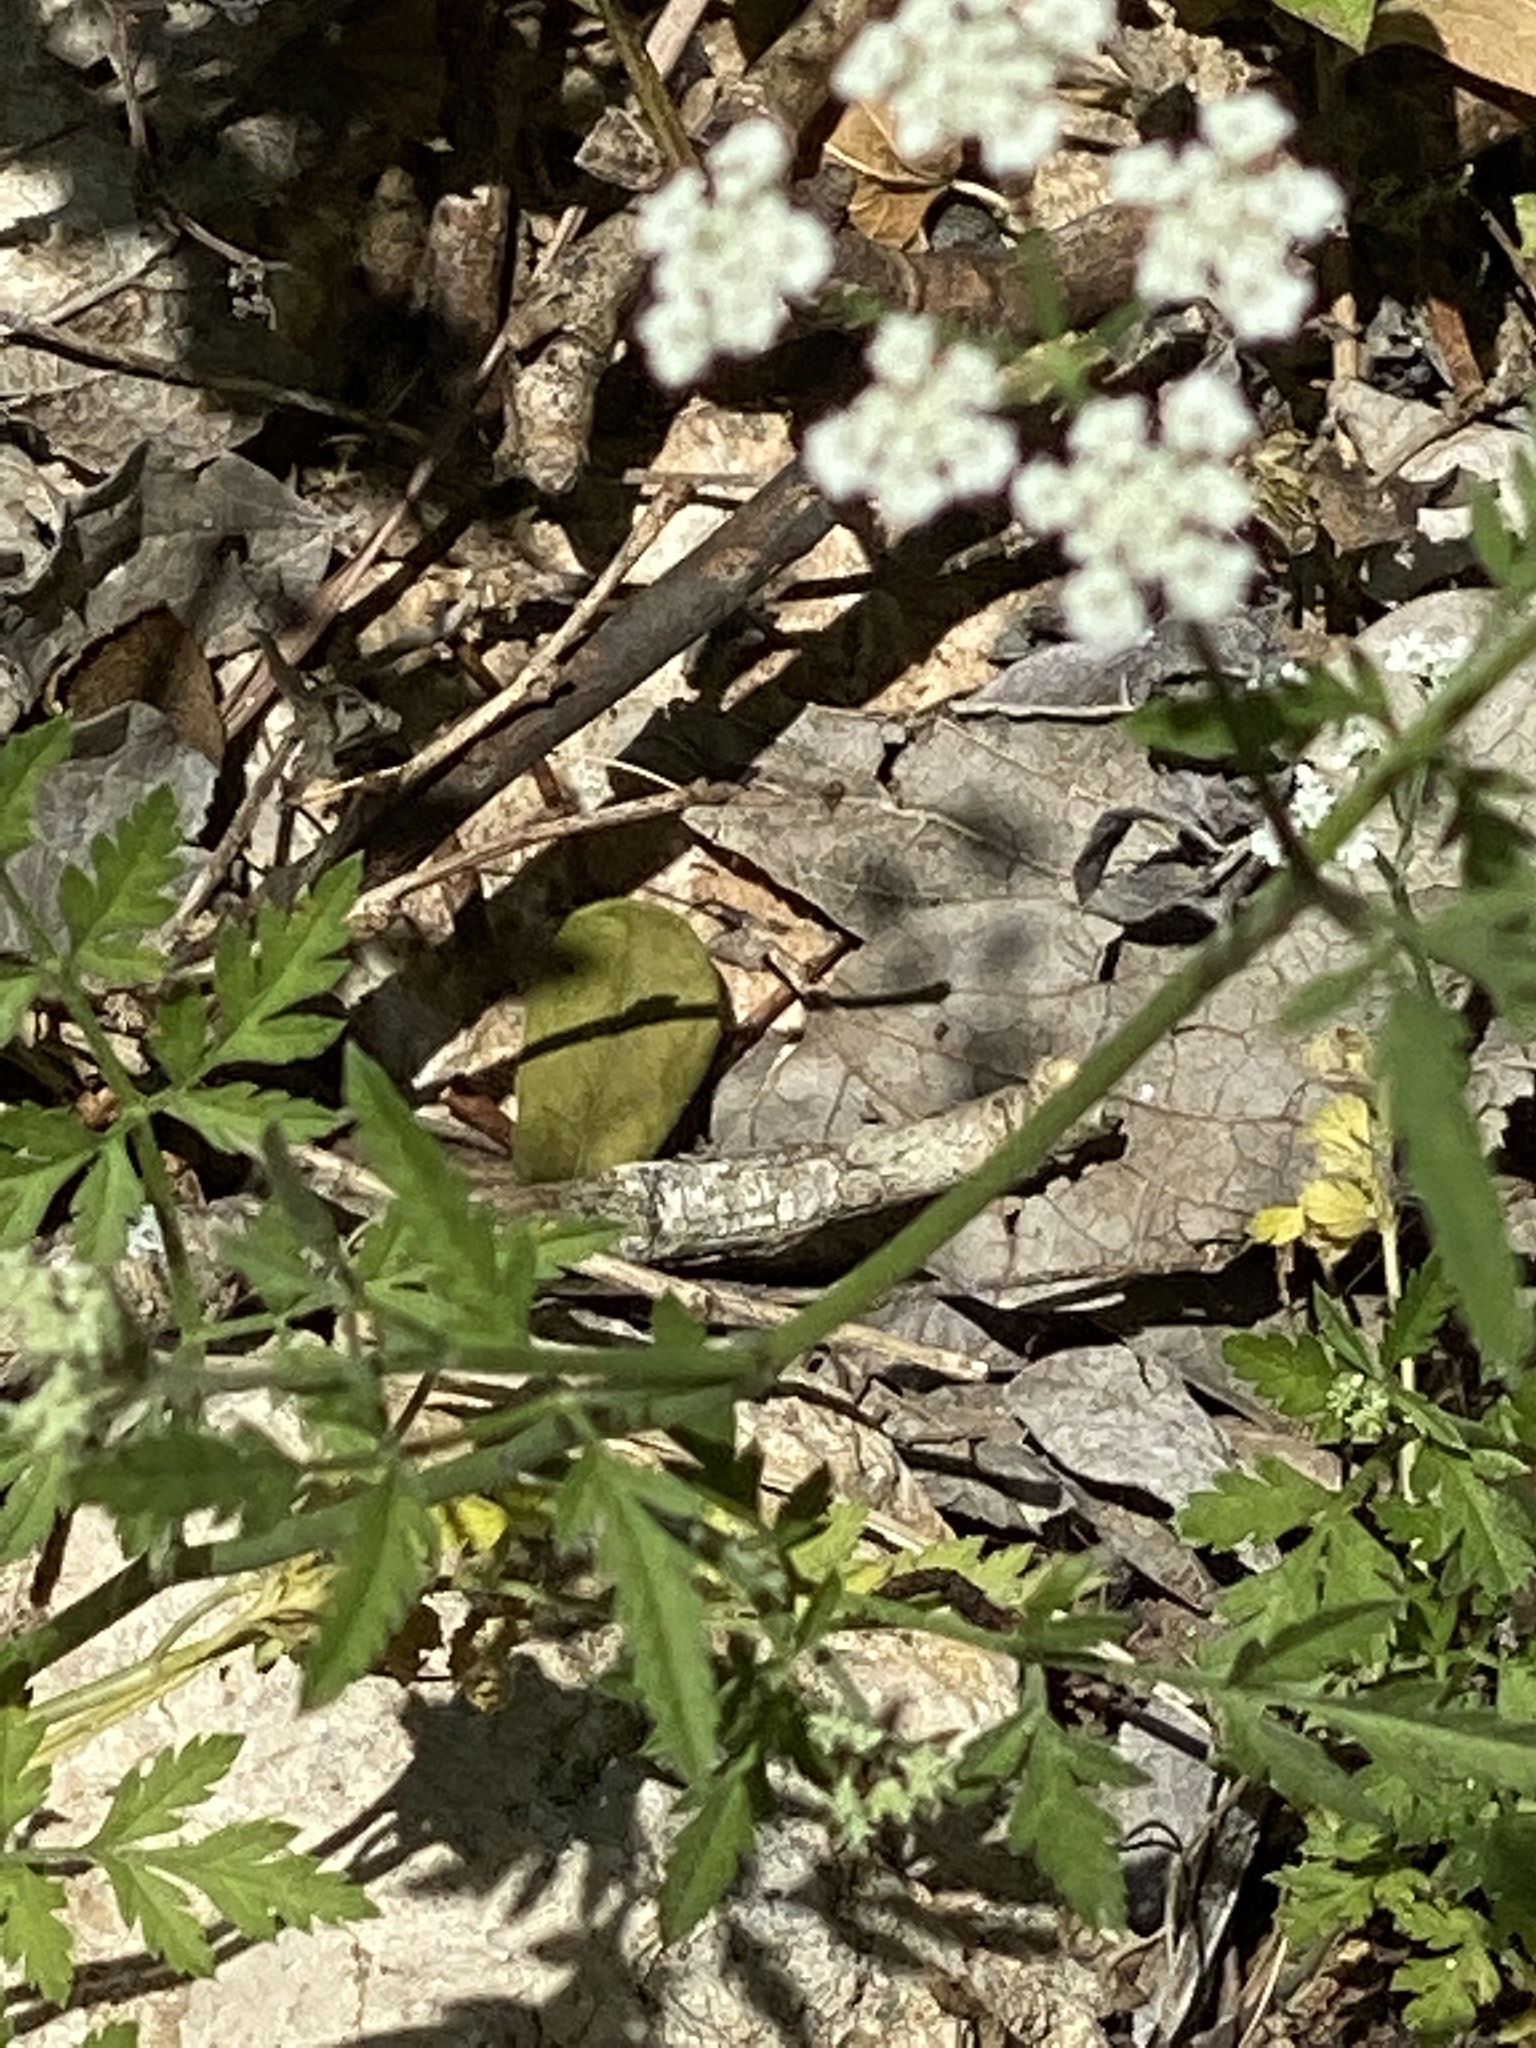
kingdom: Plantae
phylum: Tracheophyta
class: Magnoliopsida
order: Apiales
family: Apiaceae
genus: Torilis
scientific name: Torilis arvensis
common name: Spreading hedge-parsley
